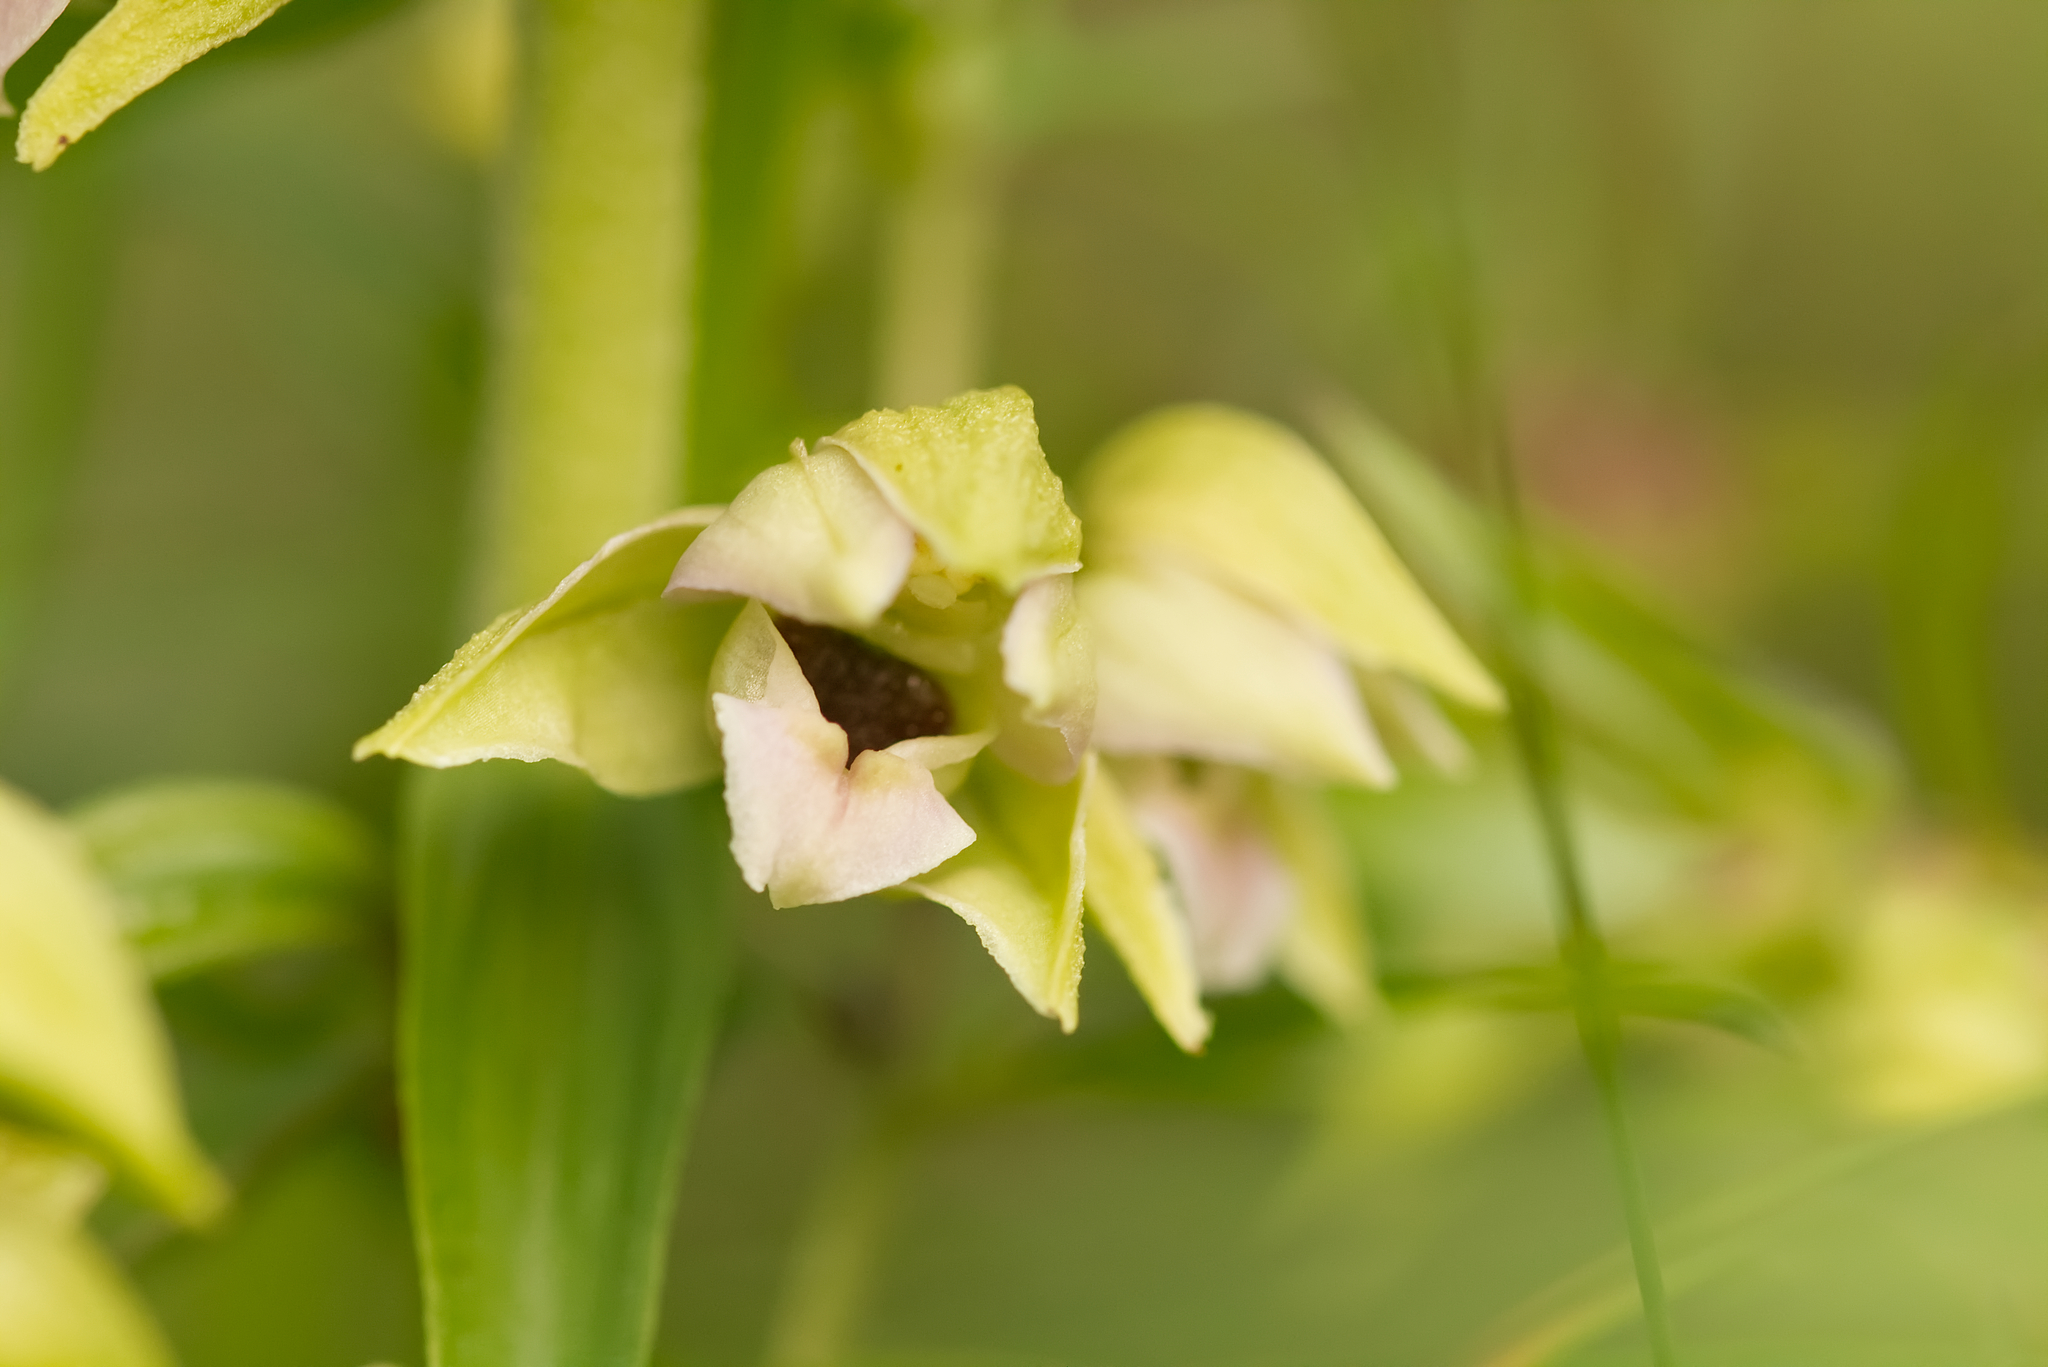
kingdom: Plantae
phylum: Tracheophyta
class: Liliopsida
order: Asparagales
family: Orchidaceae
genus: Epipactis
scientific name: Epipactis helleborine
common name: Broad-leaved helleborine
